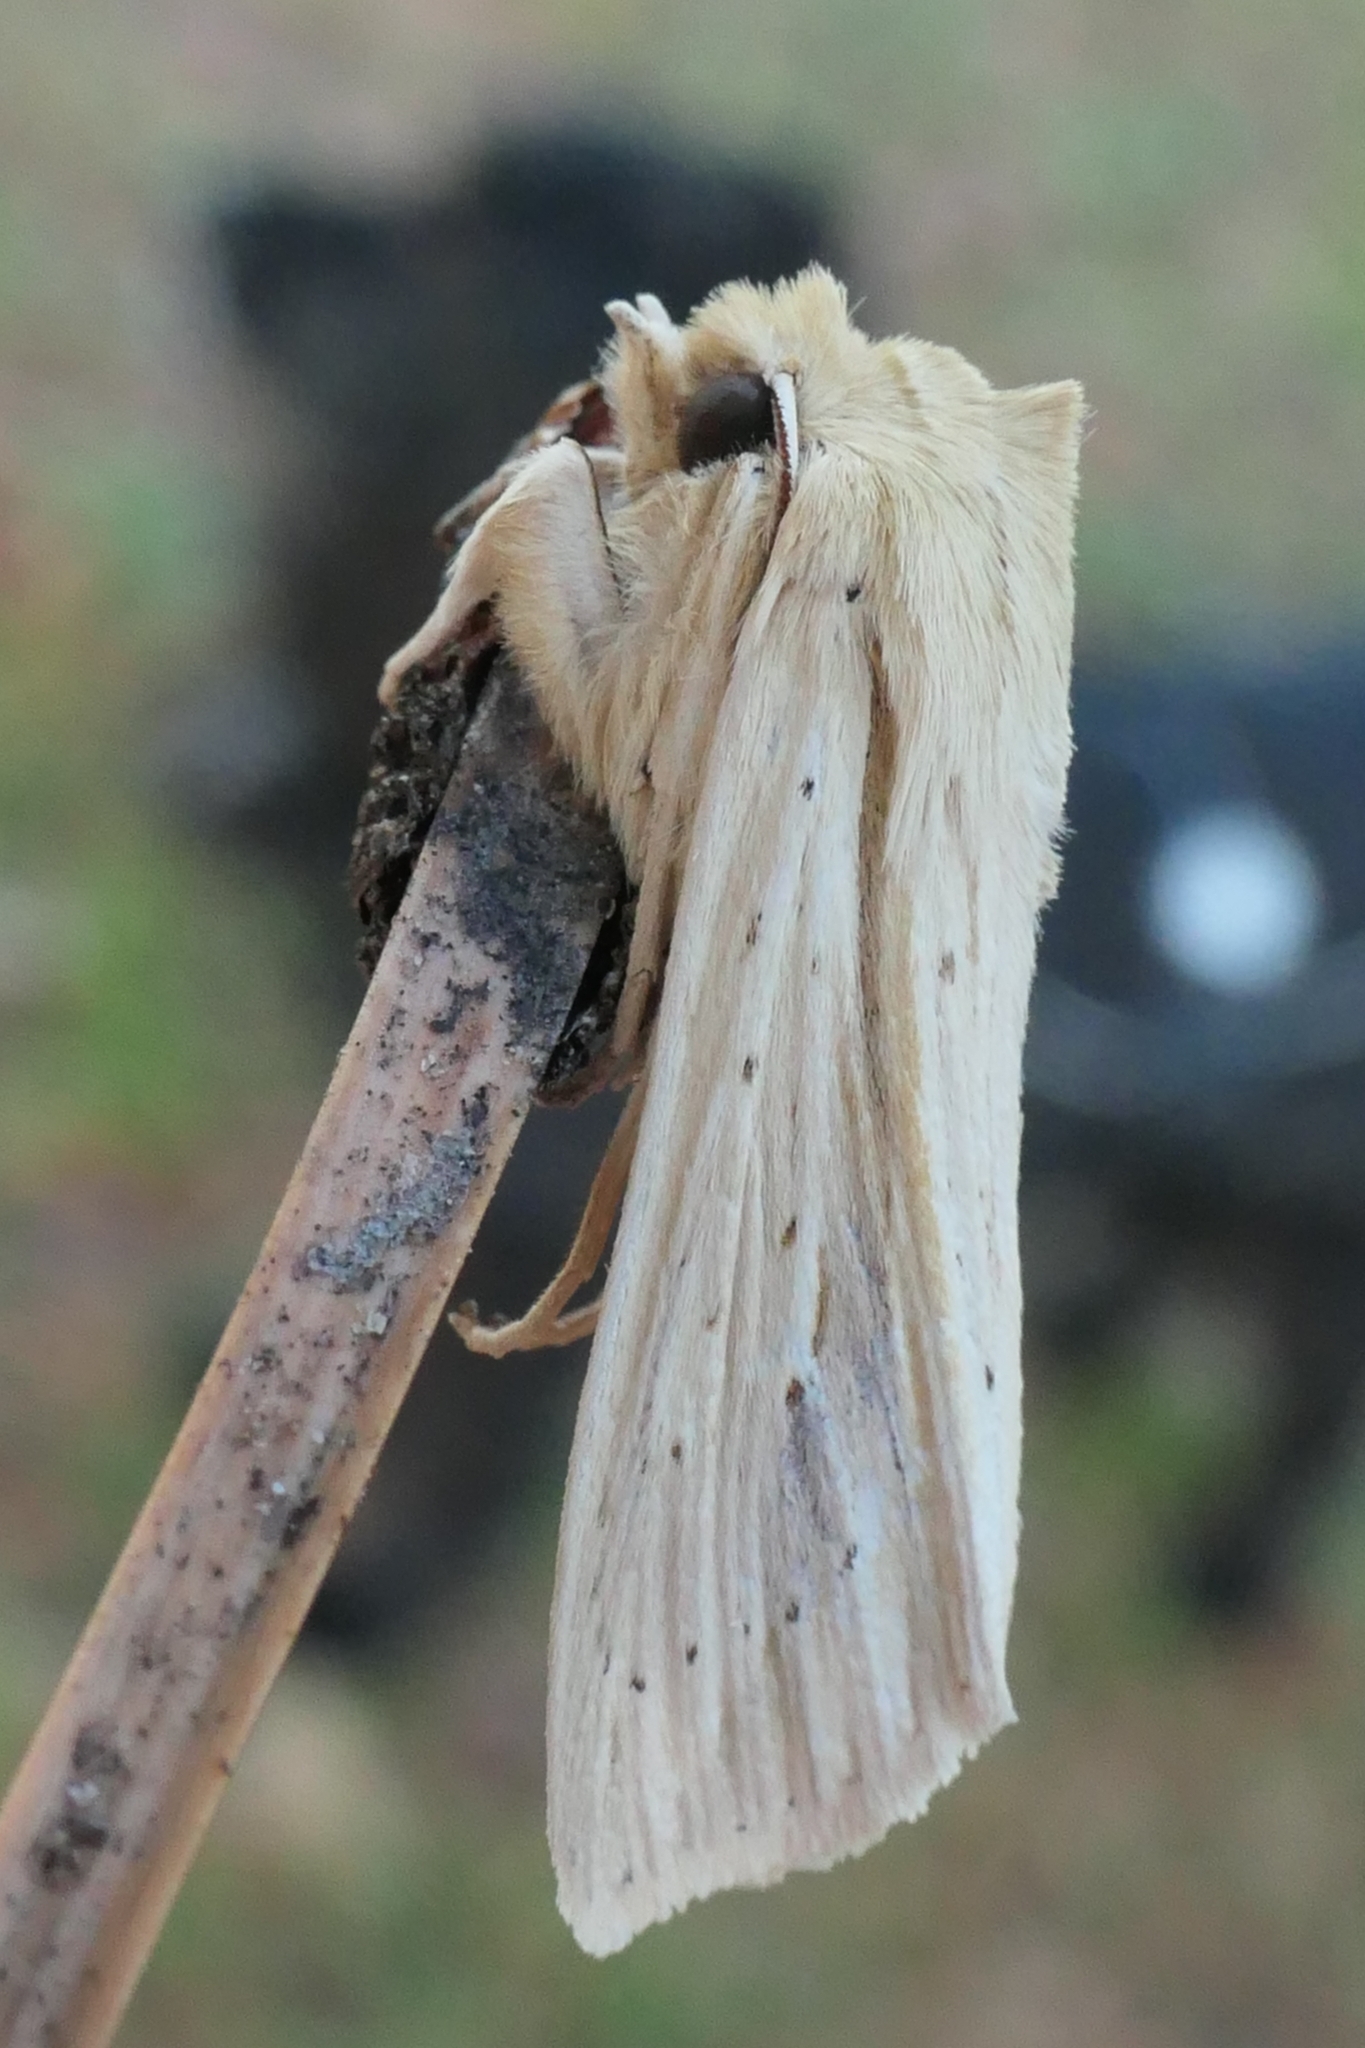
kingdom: Animalia
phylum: Arthropoda
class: Insecta
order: Lepidoptera
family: Noctuidae
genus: Ichneutica
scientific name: Ichneutica semivittata
